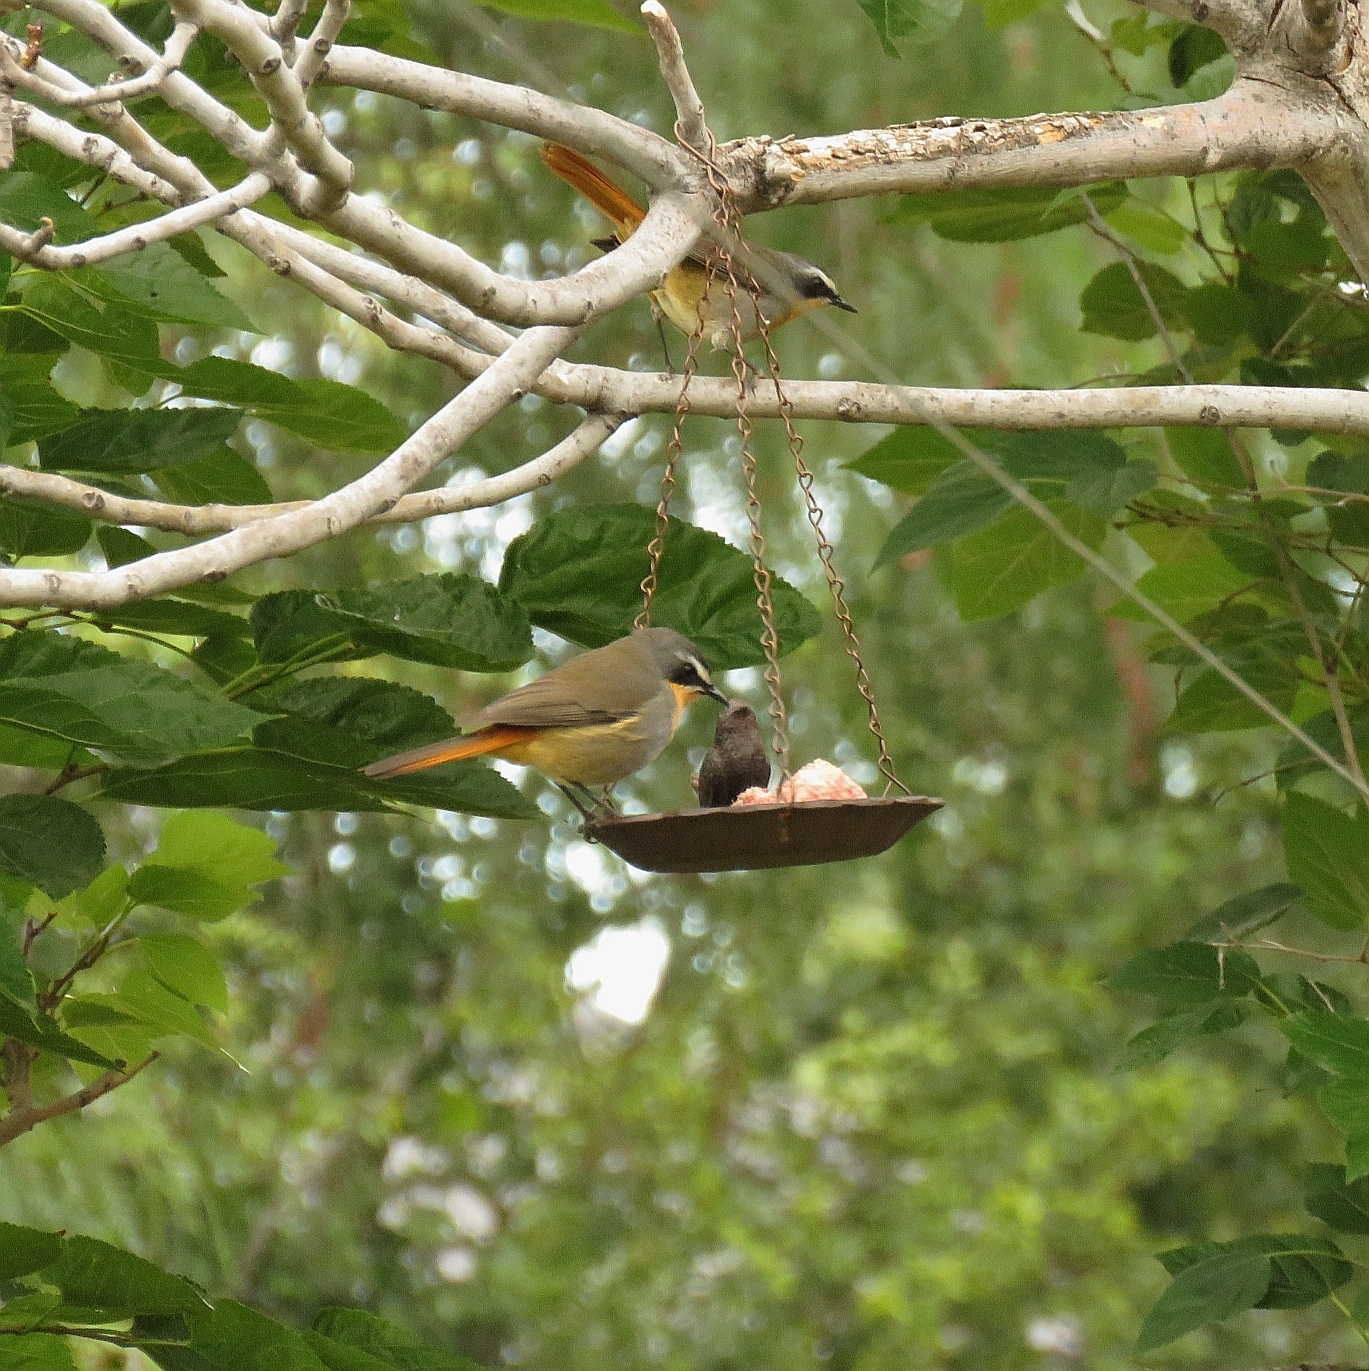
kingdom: Animalia
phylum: Chordata
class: Aves
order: Passeriformes
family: Muscicapidae
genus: Cossypha
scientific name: Cossypha caffra
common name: Cape robin-chat
